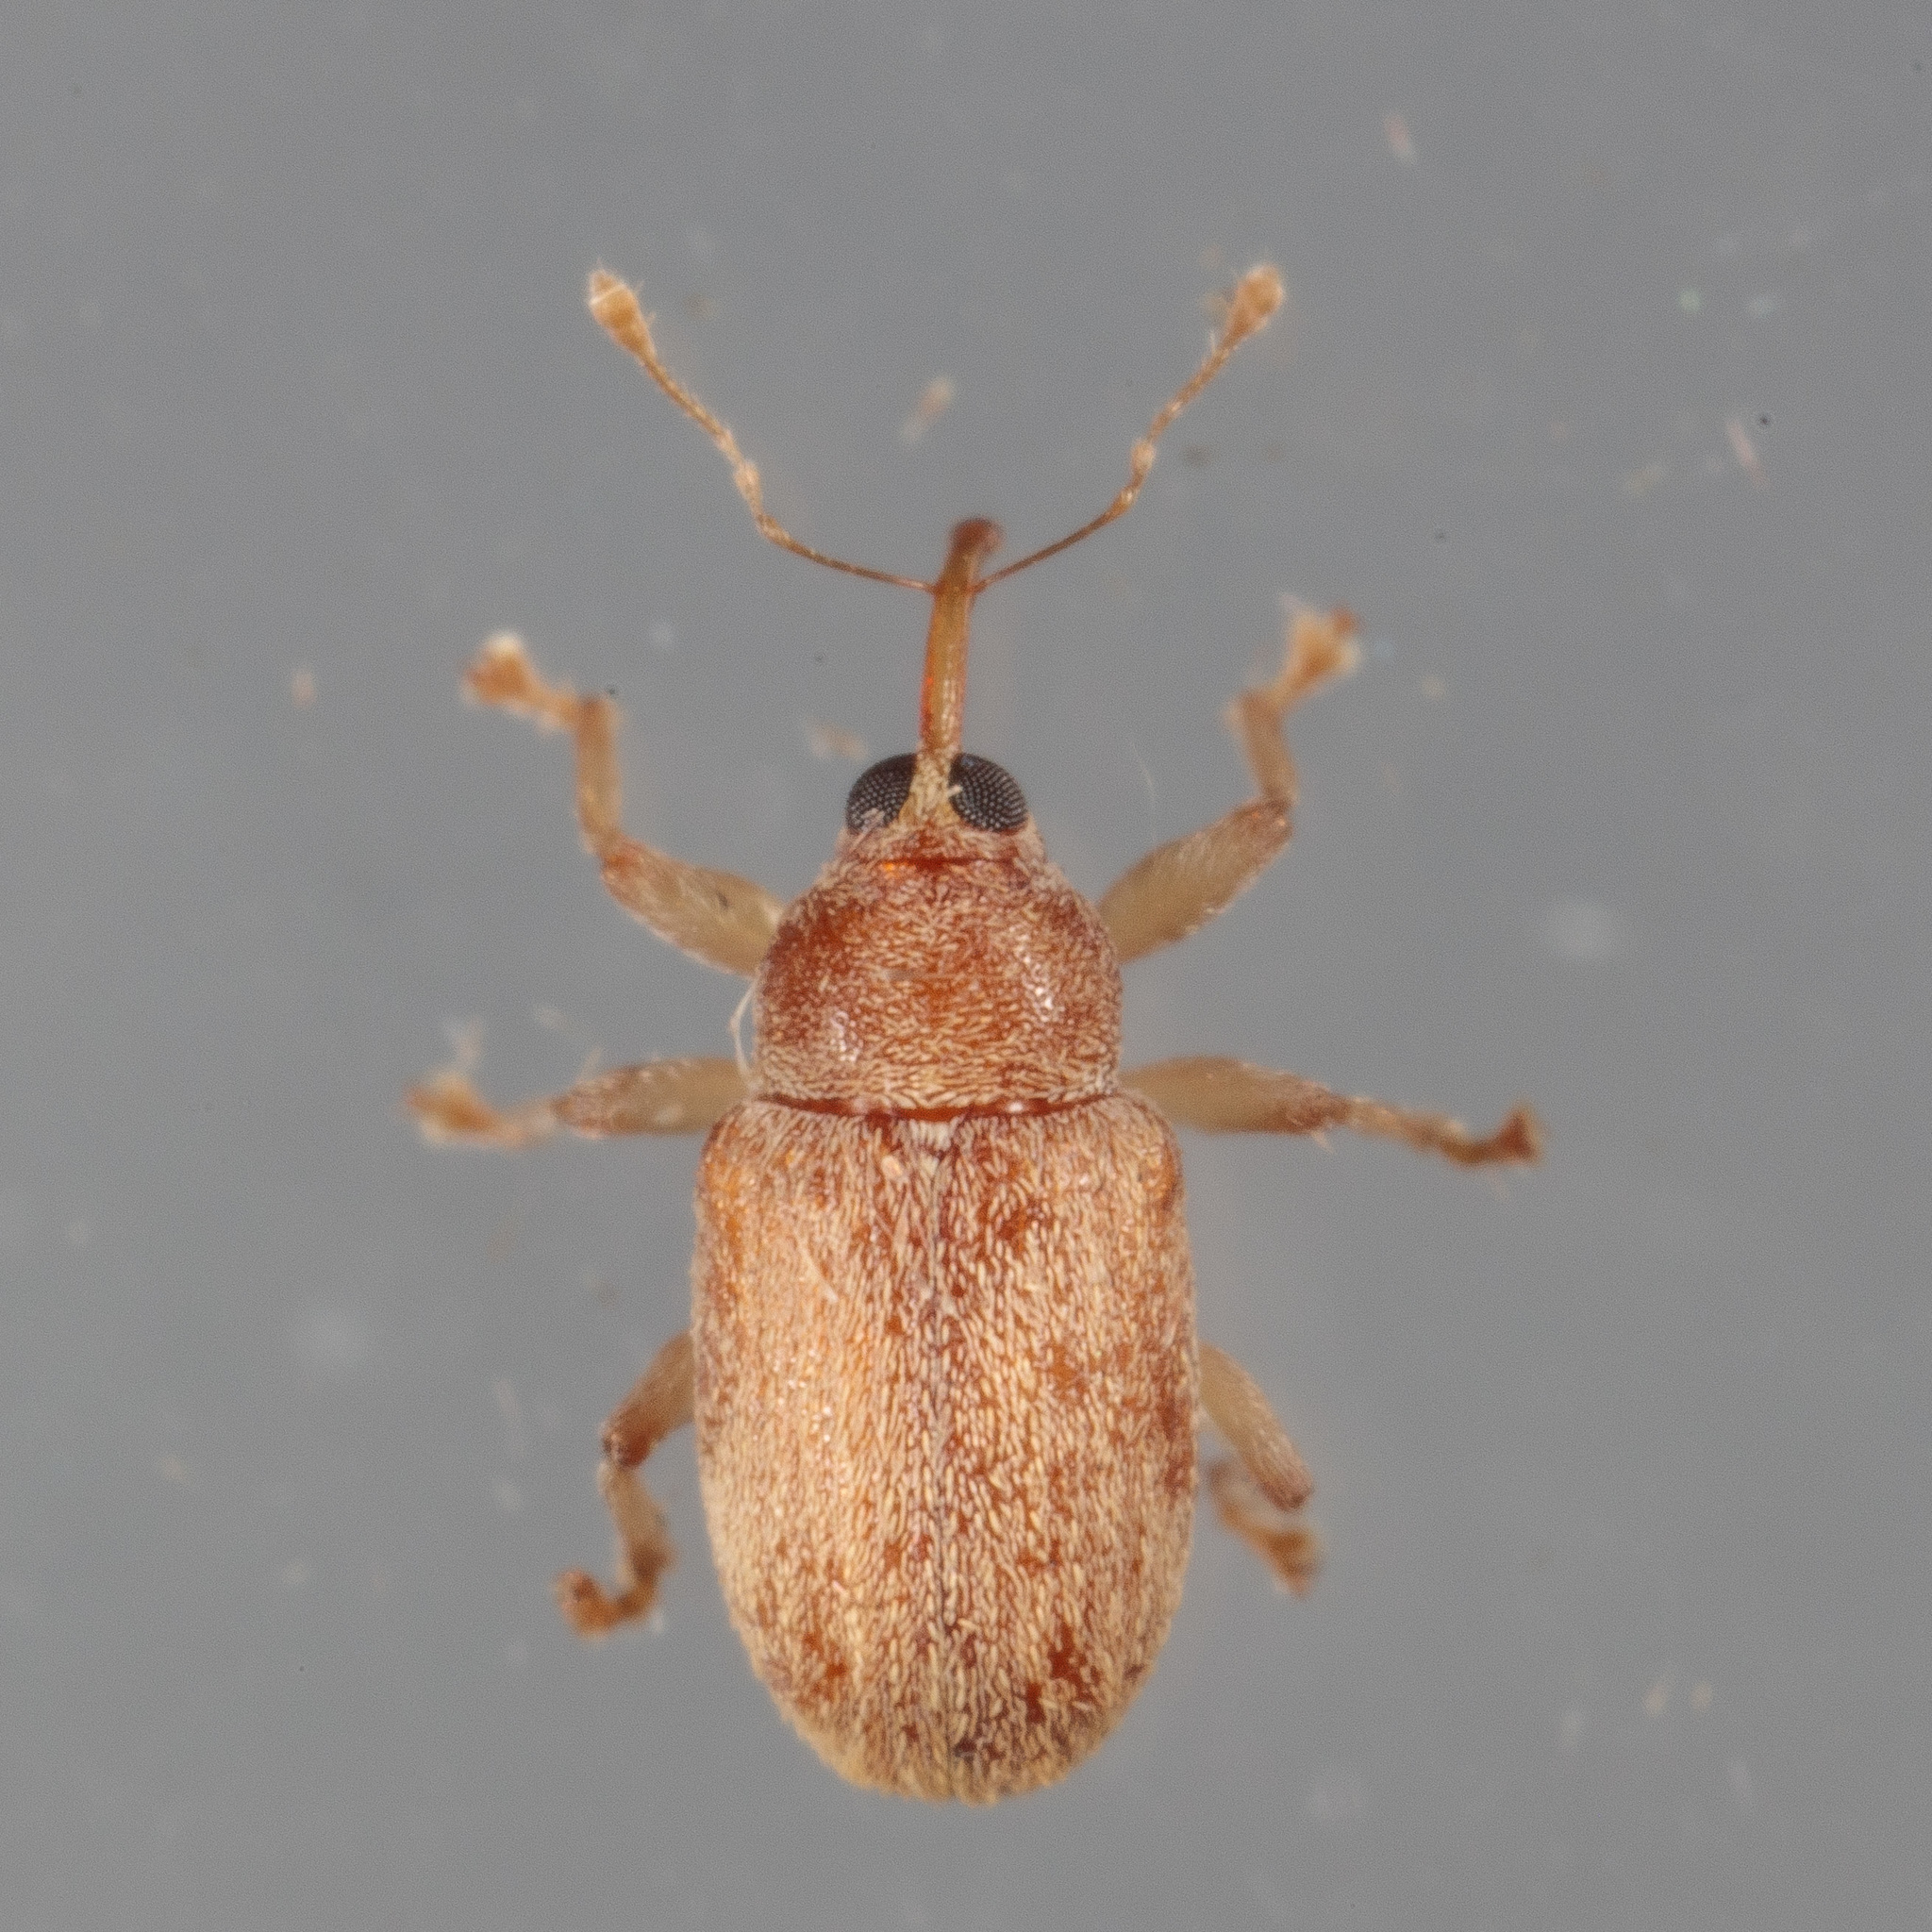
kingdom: Animalia
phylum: Arthropoda
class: Insecta
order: Coleoptera
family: Curculionidae
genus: Lignyodes
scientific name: Lignyodes helvolus
